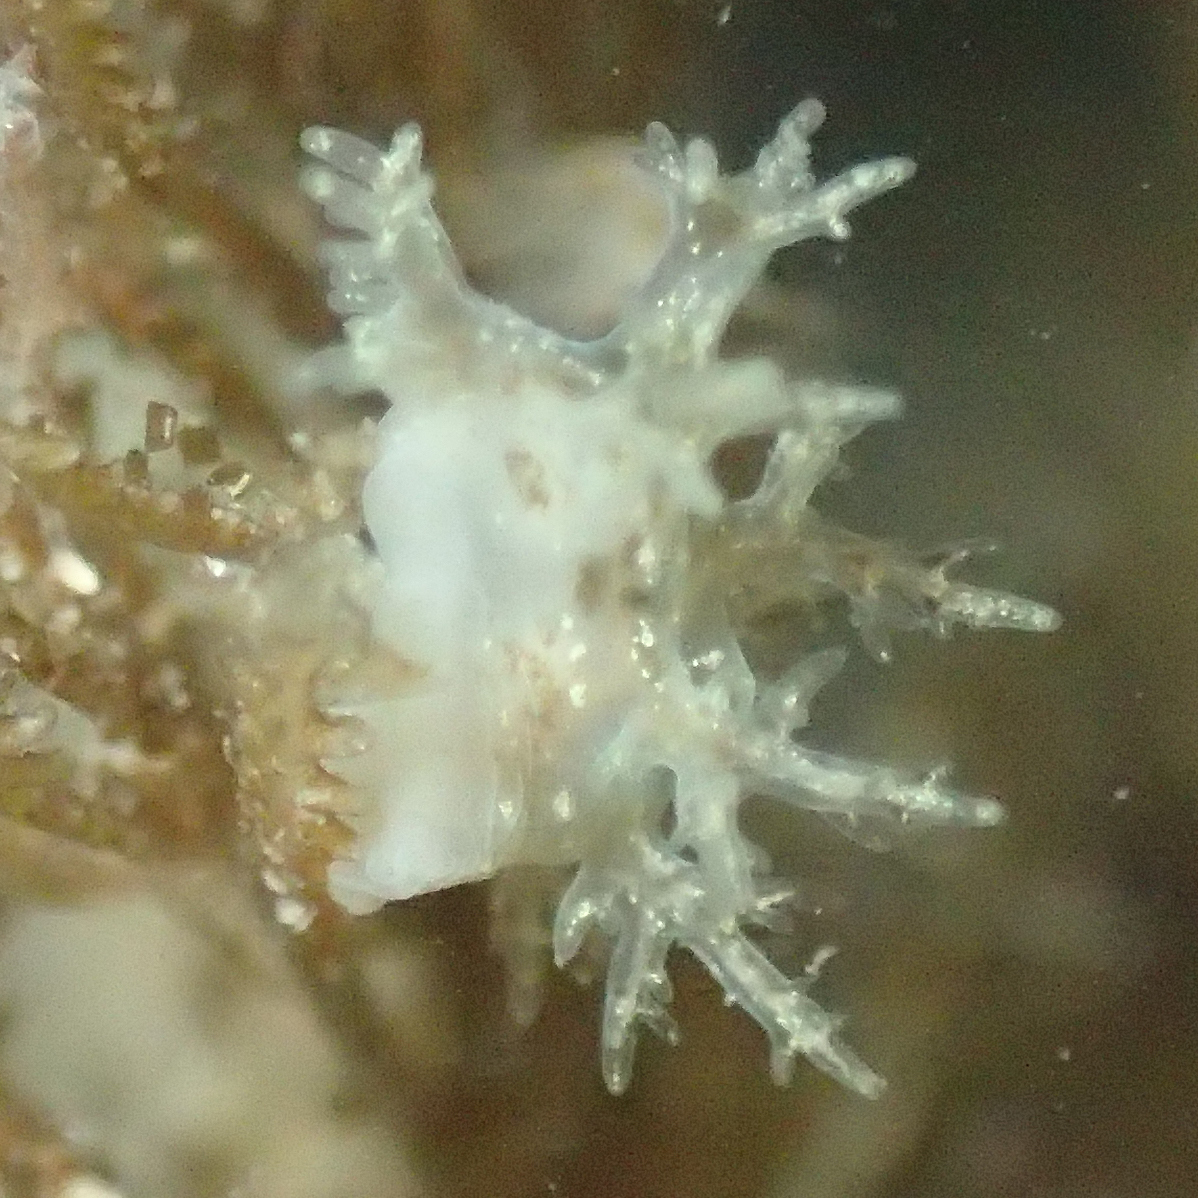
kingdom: Animalia
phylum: Mollusca
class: Gastropoda
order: Nudibranchia
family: Dendronotidae
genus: Dendronotus
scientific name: Dendronotus venustus
